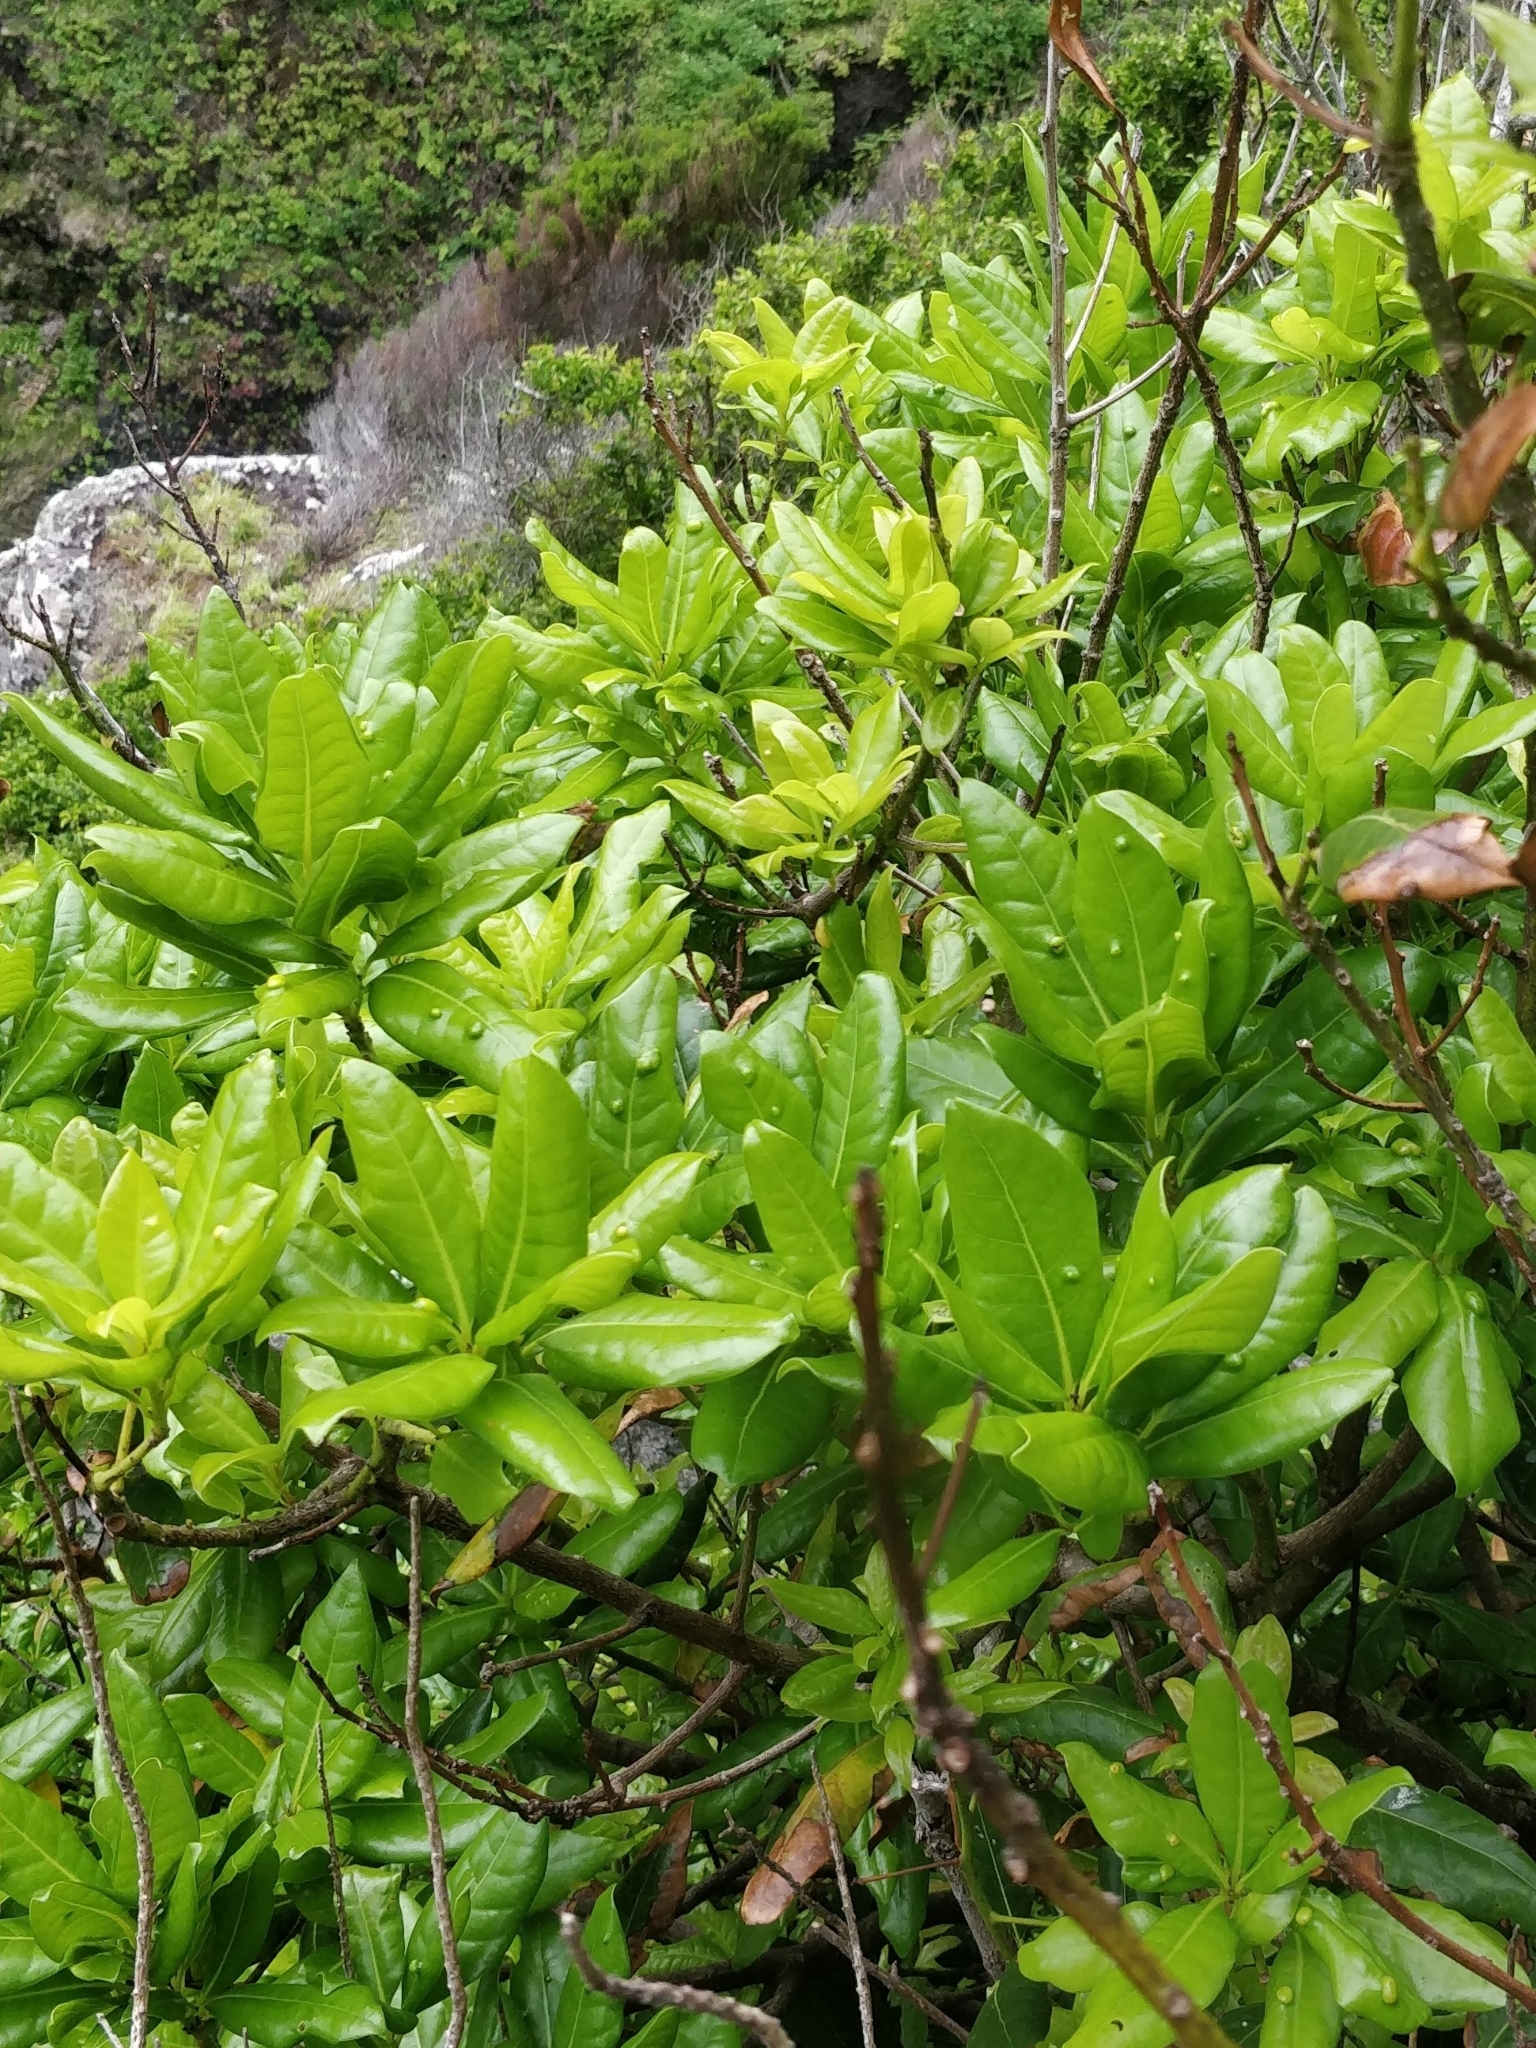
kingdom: Plantae
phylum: Tracheophyta
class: Magnoliopsida
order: Laurales
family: Lauraceae
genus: Apollonias
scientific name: Apollonias barbujana
